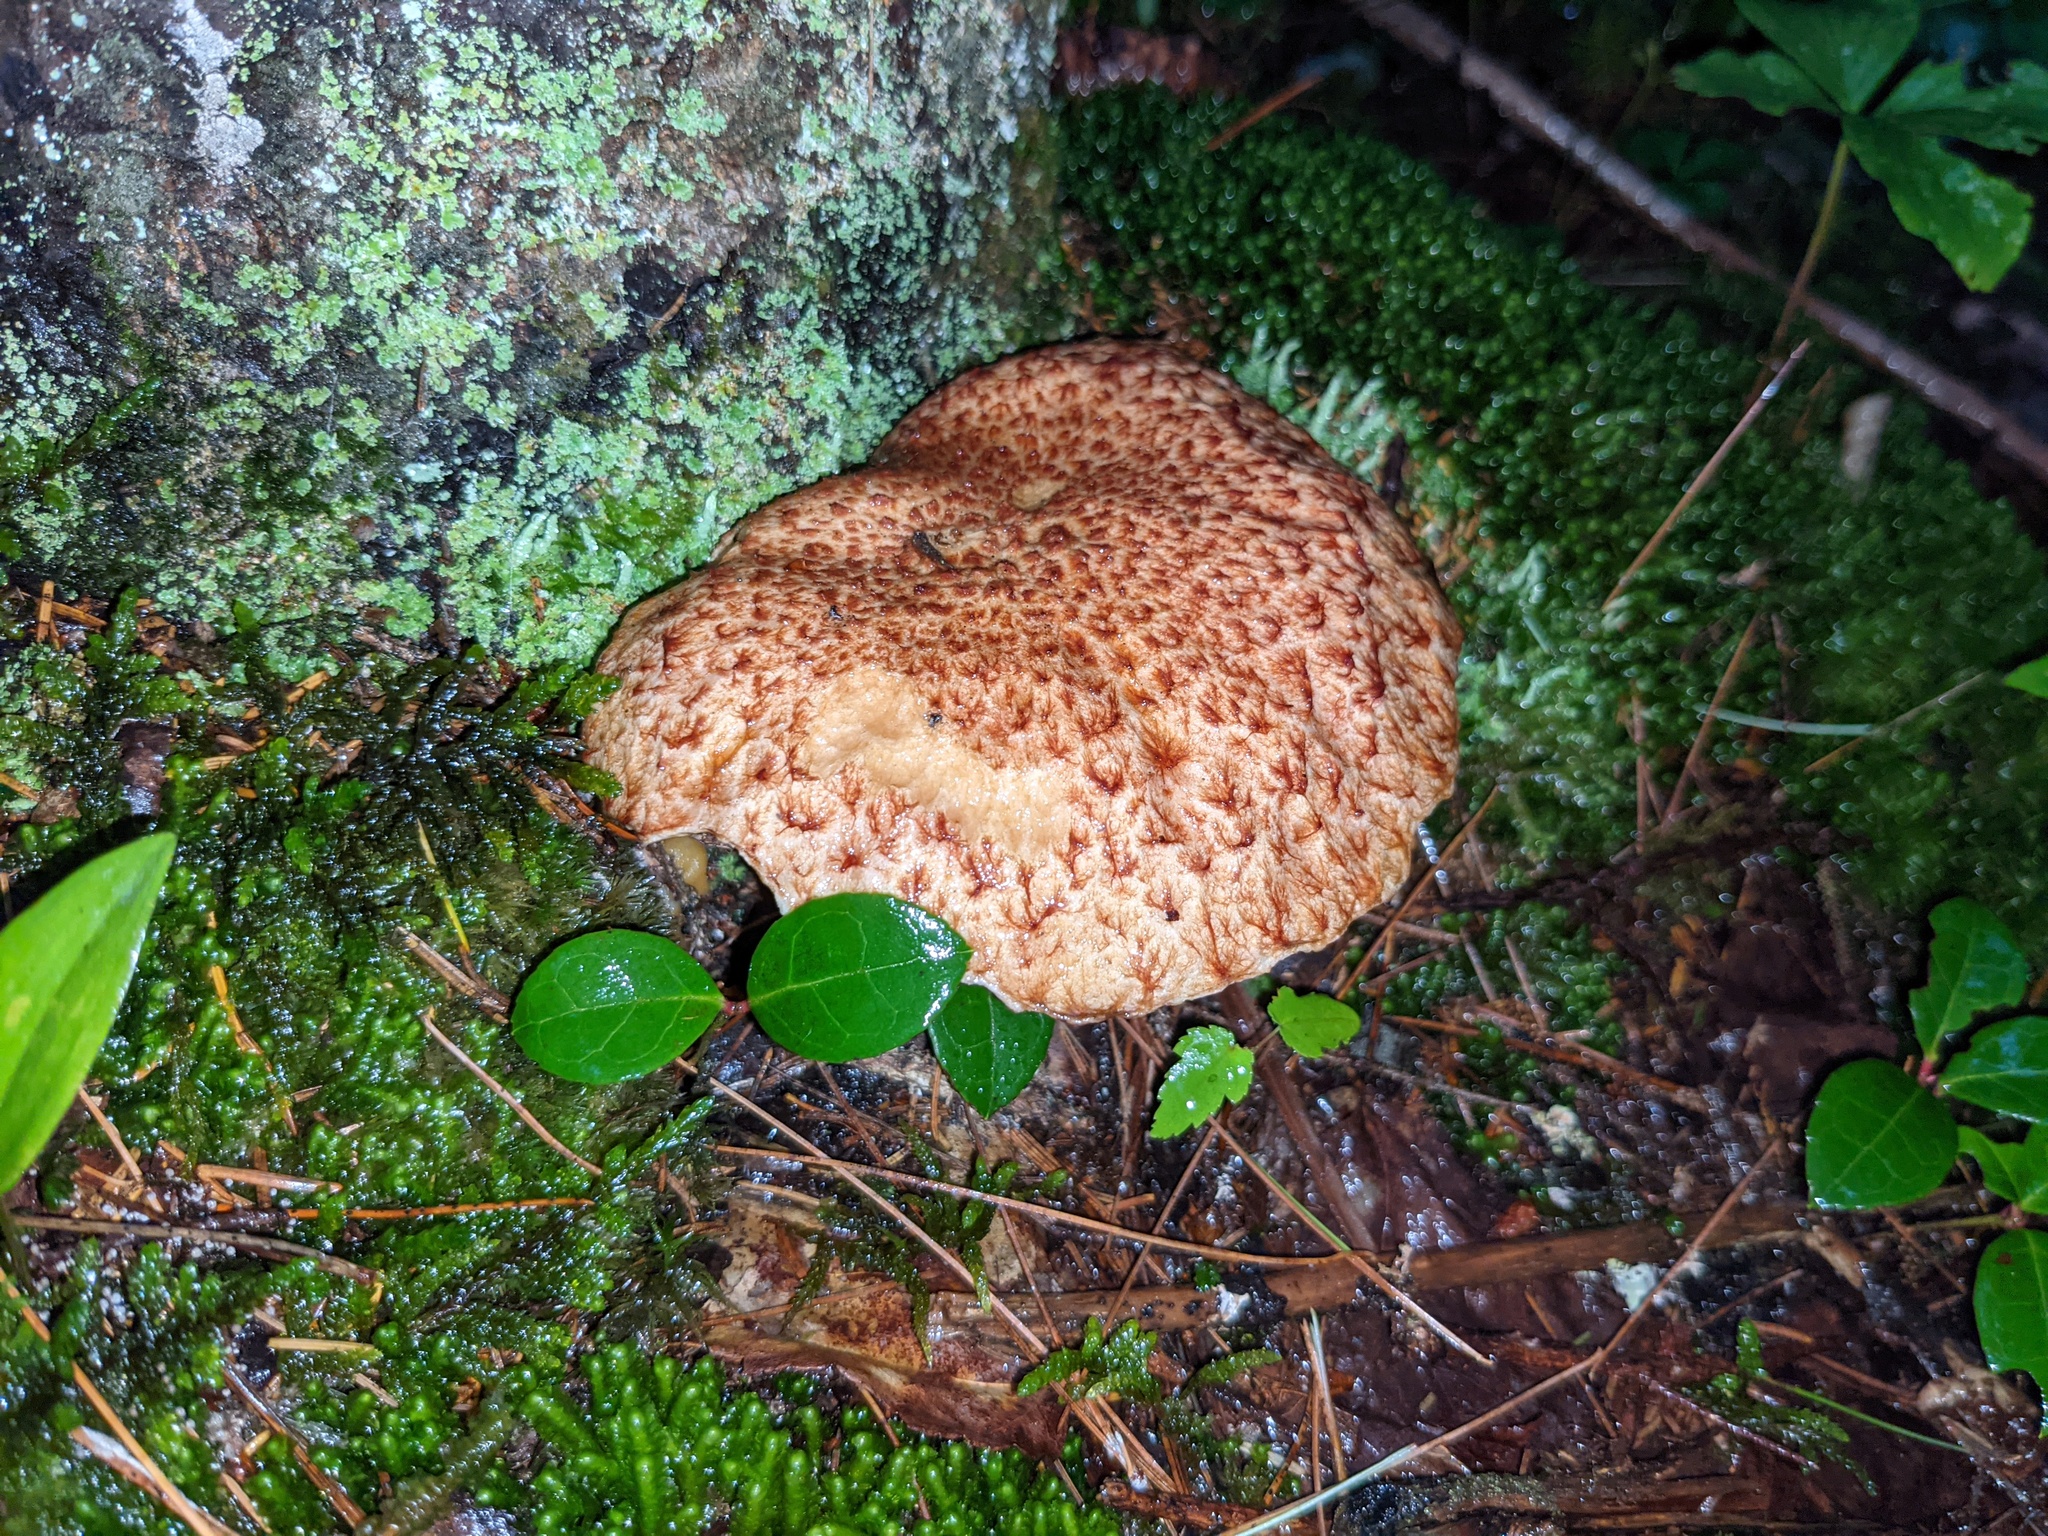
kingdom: Plantae
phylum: Tracheophyta
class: Magnoliopsida
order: Ericales
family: Ericaceae
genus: Gaultheria
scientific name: Gaultheria procumbens
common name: Checkerberry
